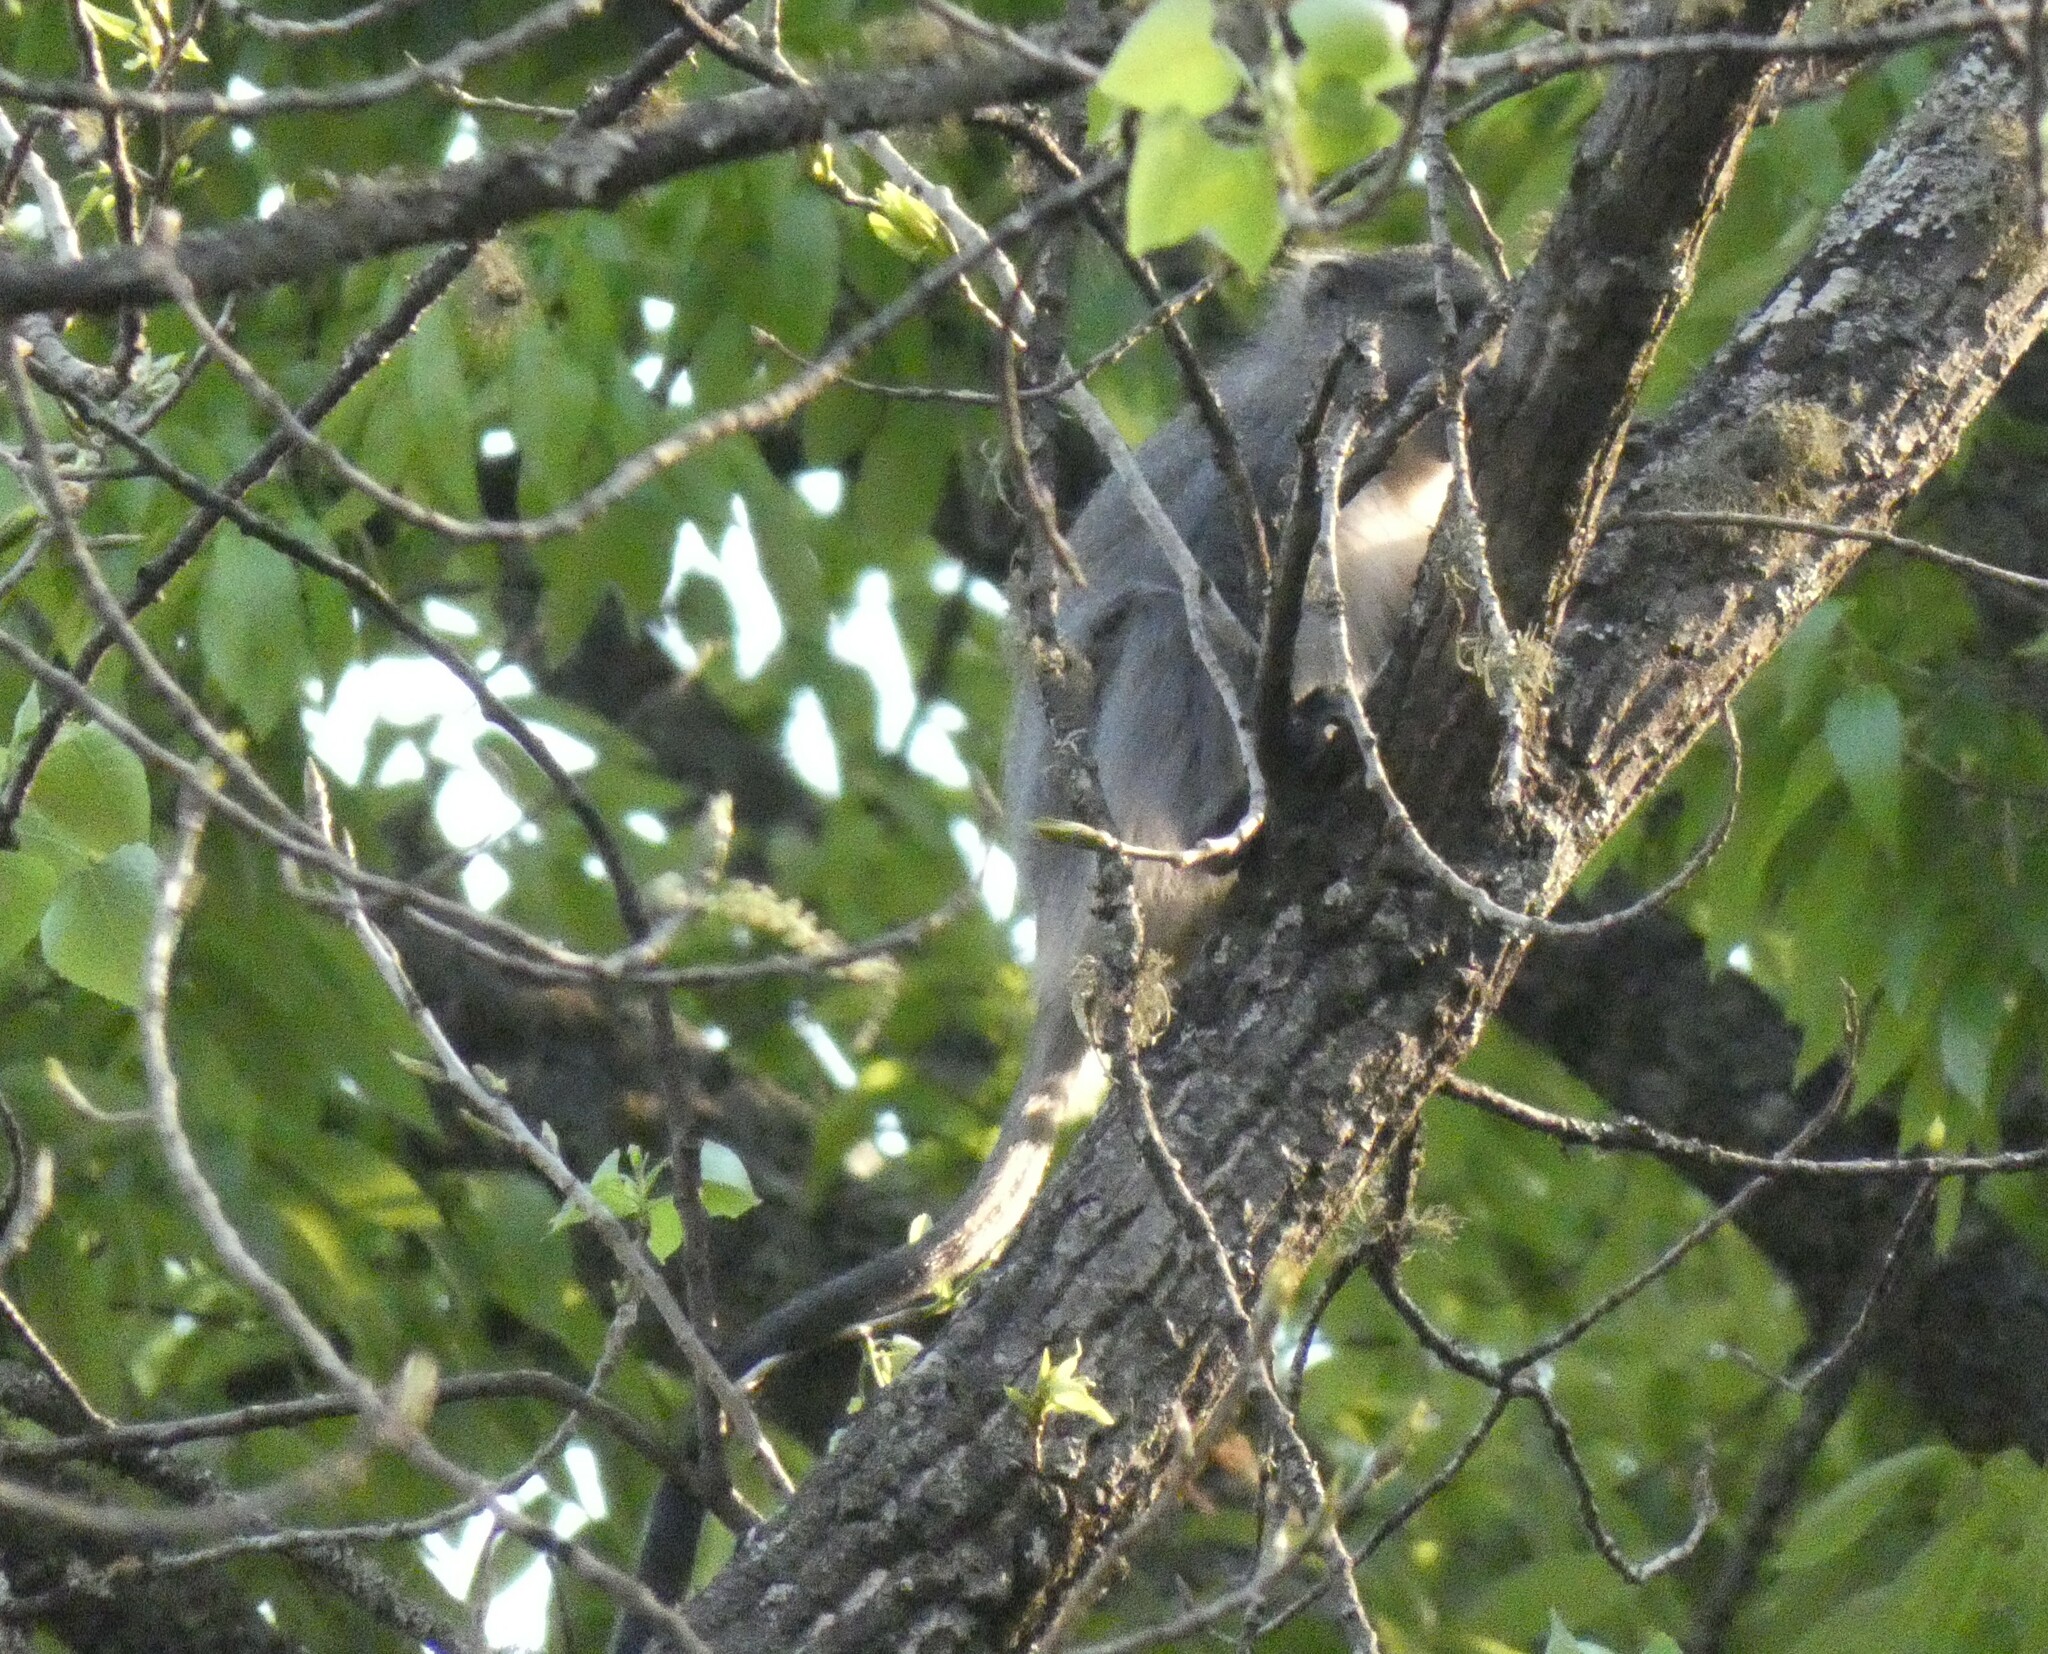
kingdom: Animalia
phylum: Chordata
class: Mammalia
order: Primates
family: Cercopithecidae
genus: Cercopithecus
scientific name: Cercopithecus mitis
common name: Blue monkey
